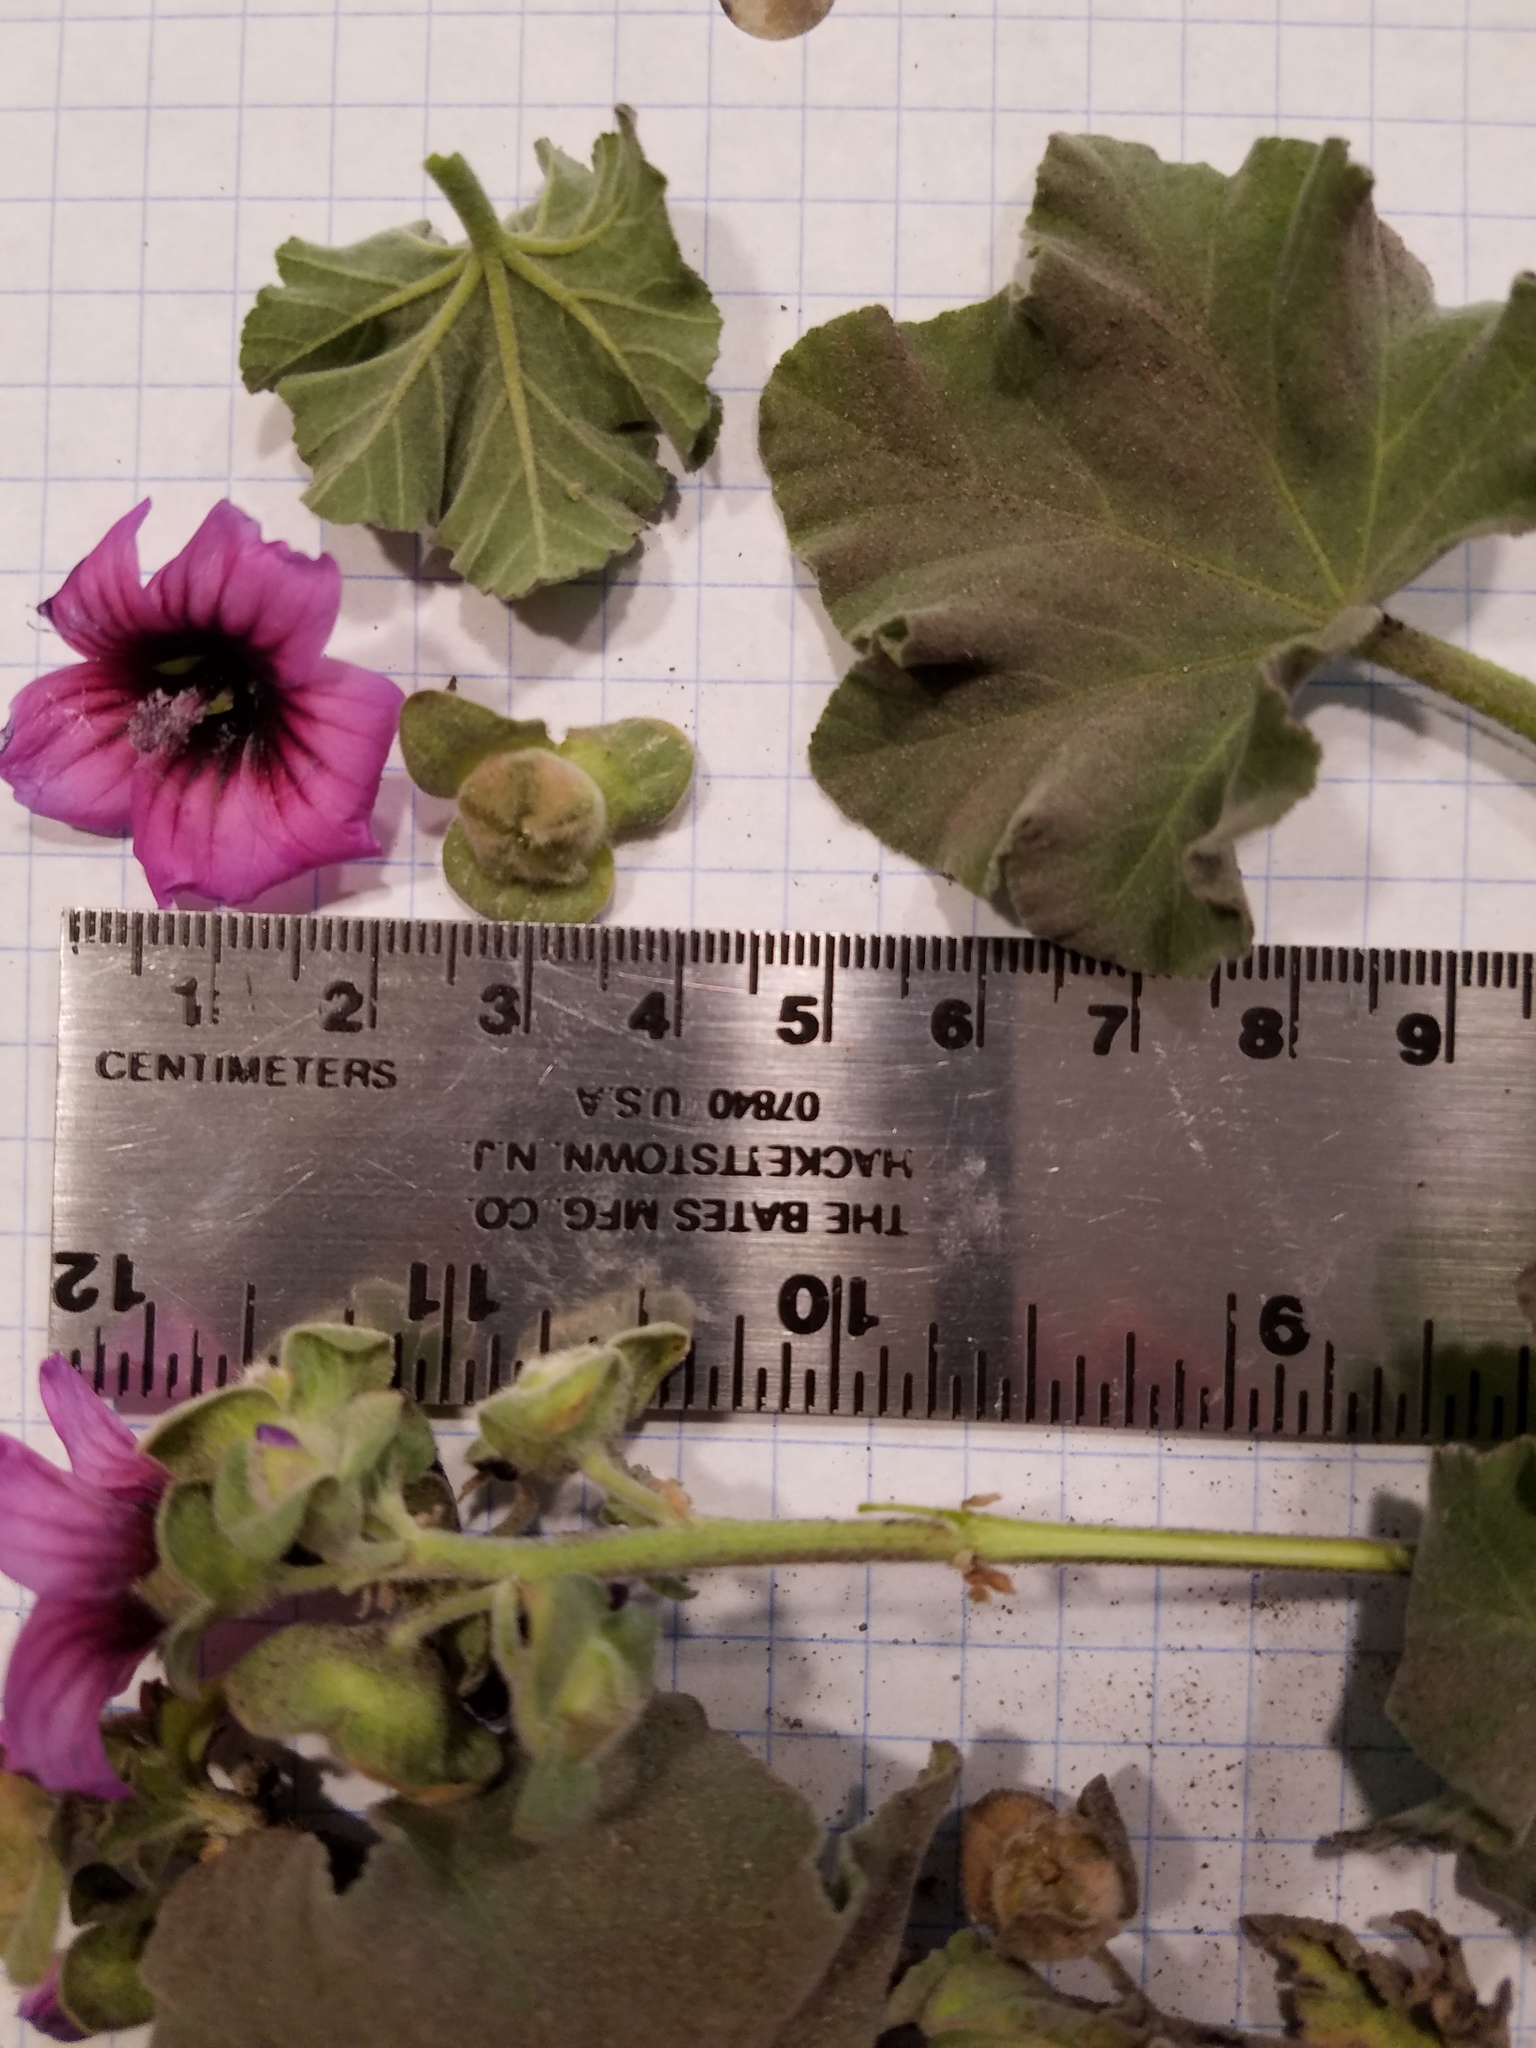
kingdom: Plantae
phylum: Tracheophyta
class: Magnoliopsida
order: Malvales
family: Malvaceae
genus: Malva
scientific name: Malva arborea
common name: Tree mallow
